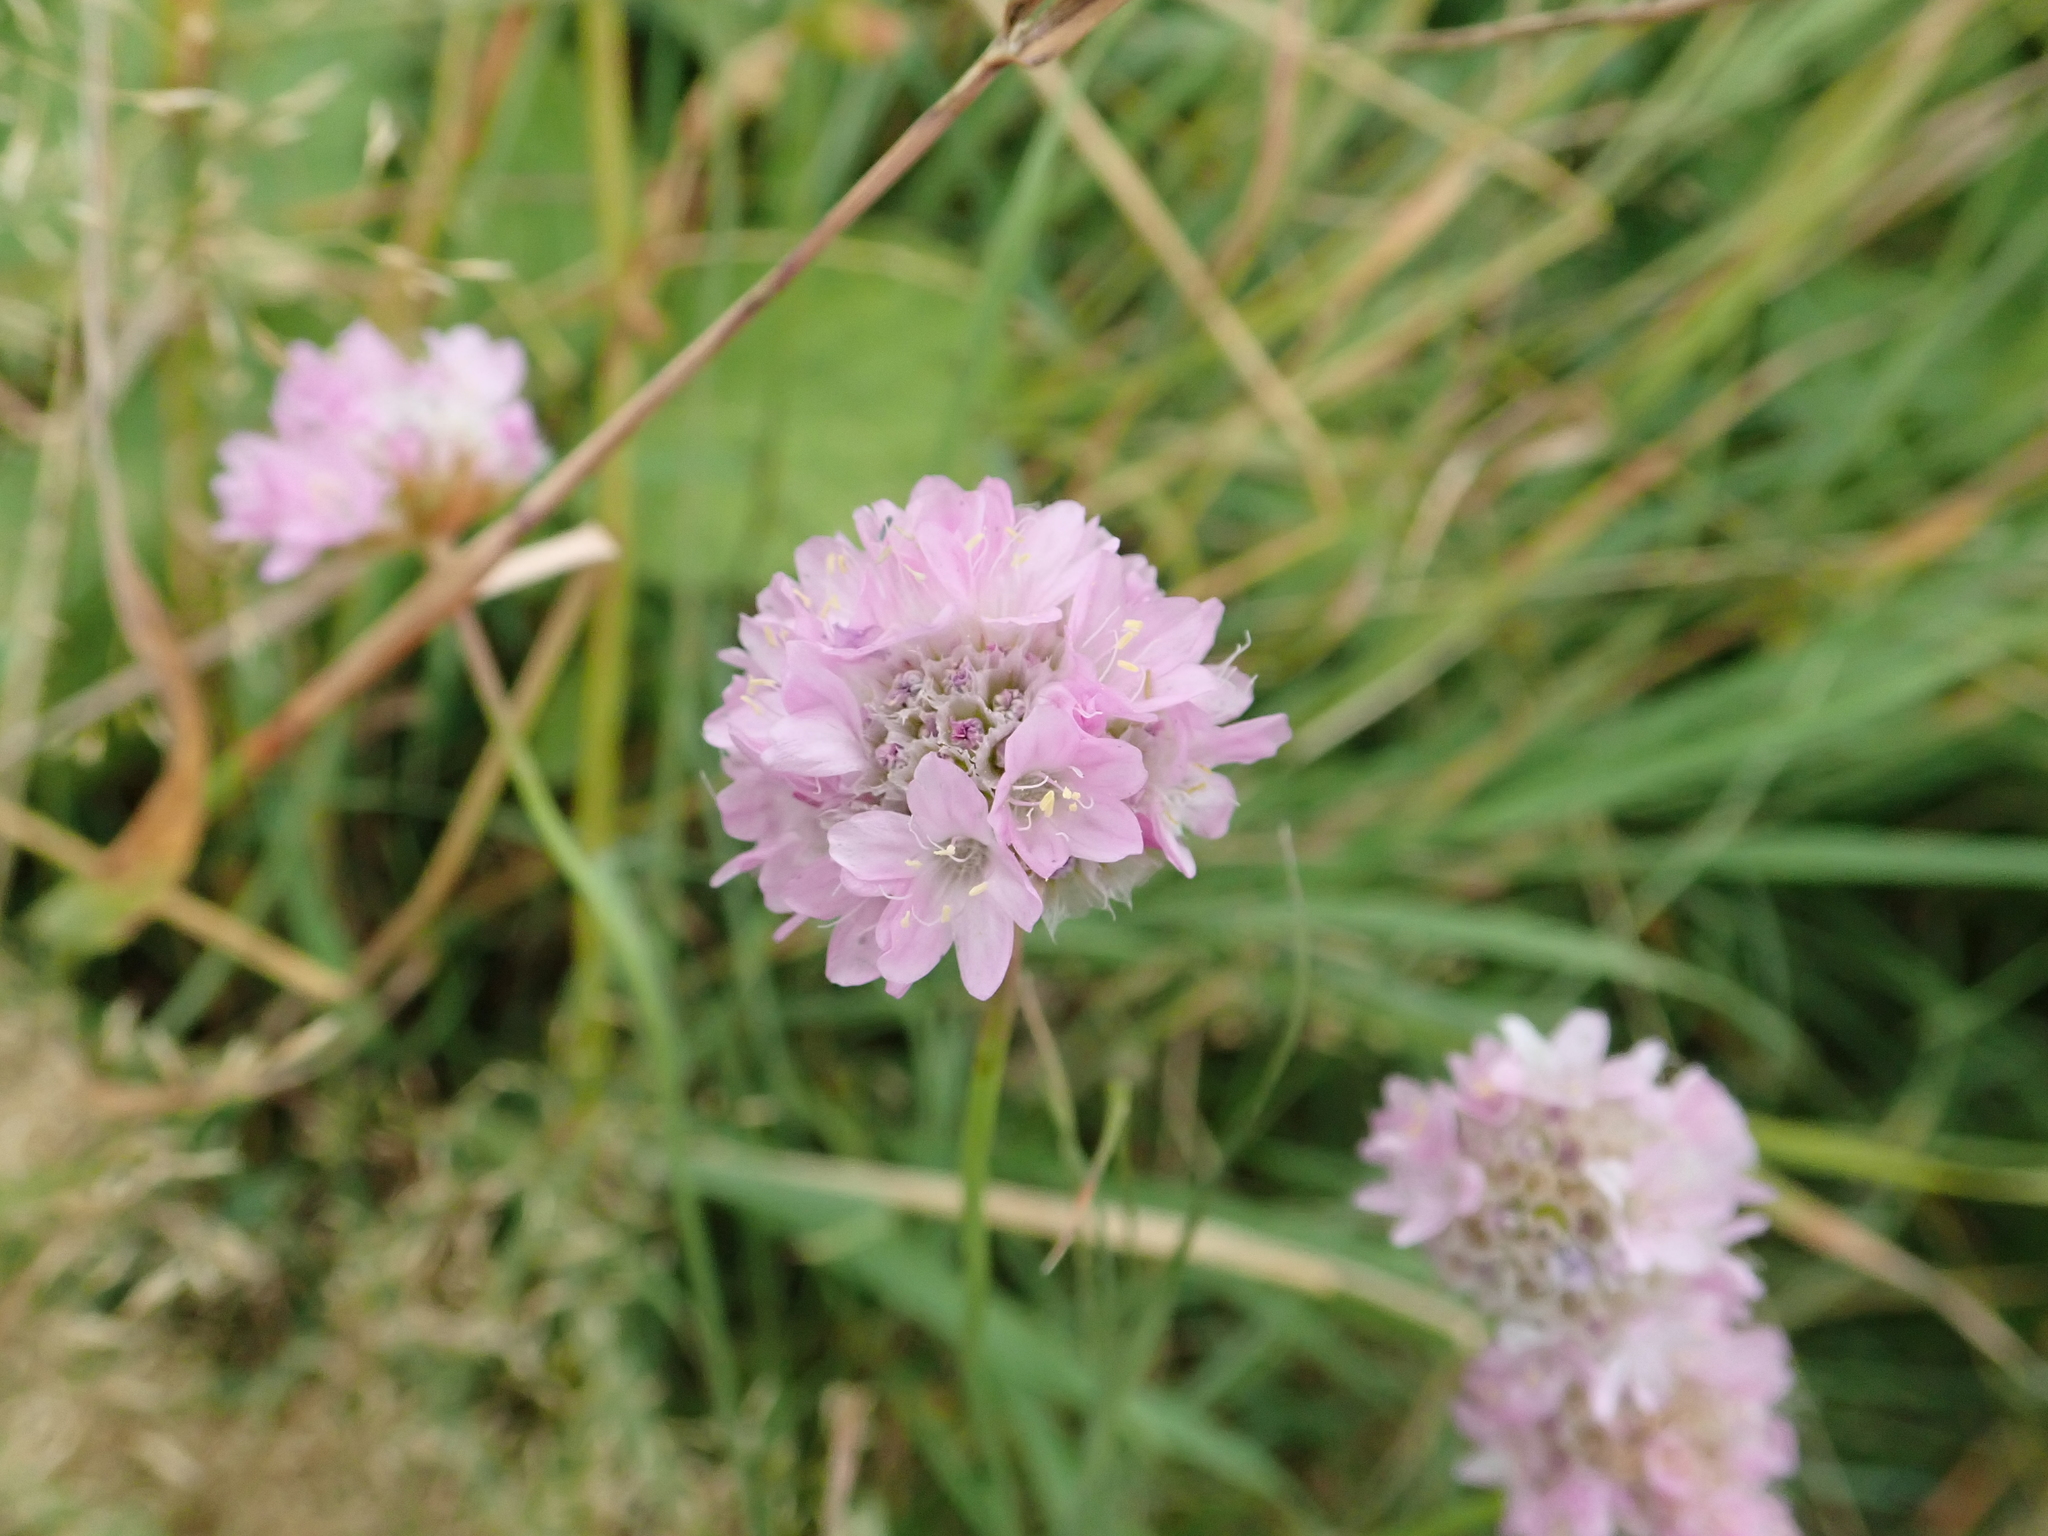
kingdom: Plantae
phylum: Tracheophyta
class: Magnoliopsida
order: Caryophyllales
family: Plumbaginaceae
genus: Armeria
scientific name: Armeria maritima
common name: Thrift
